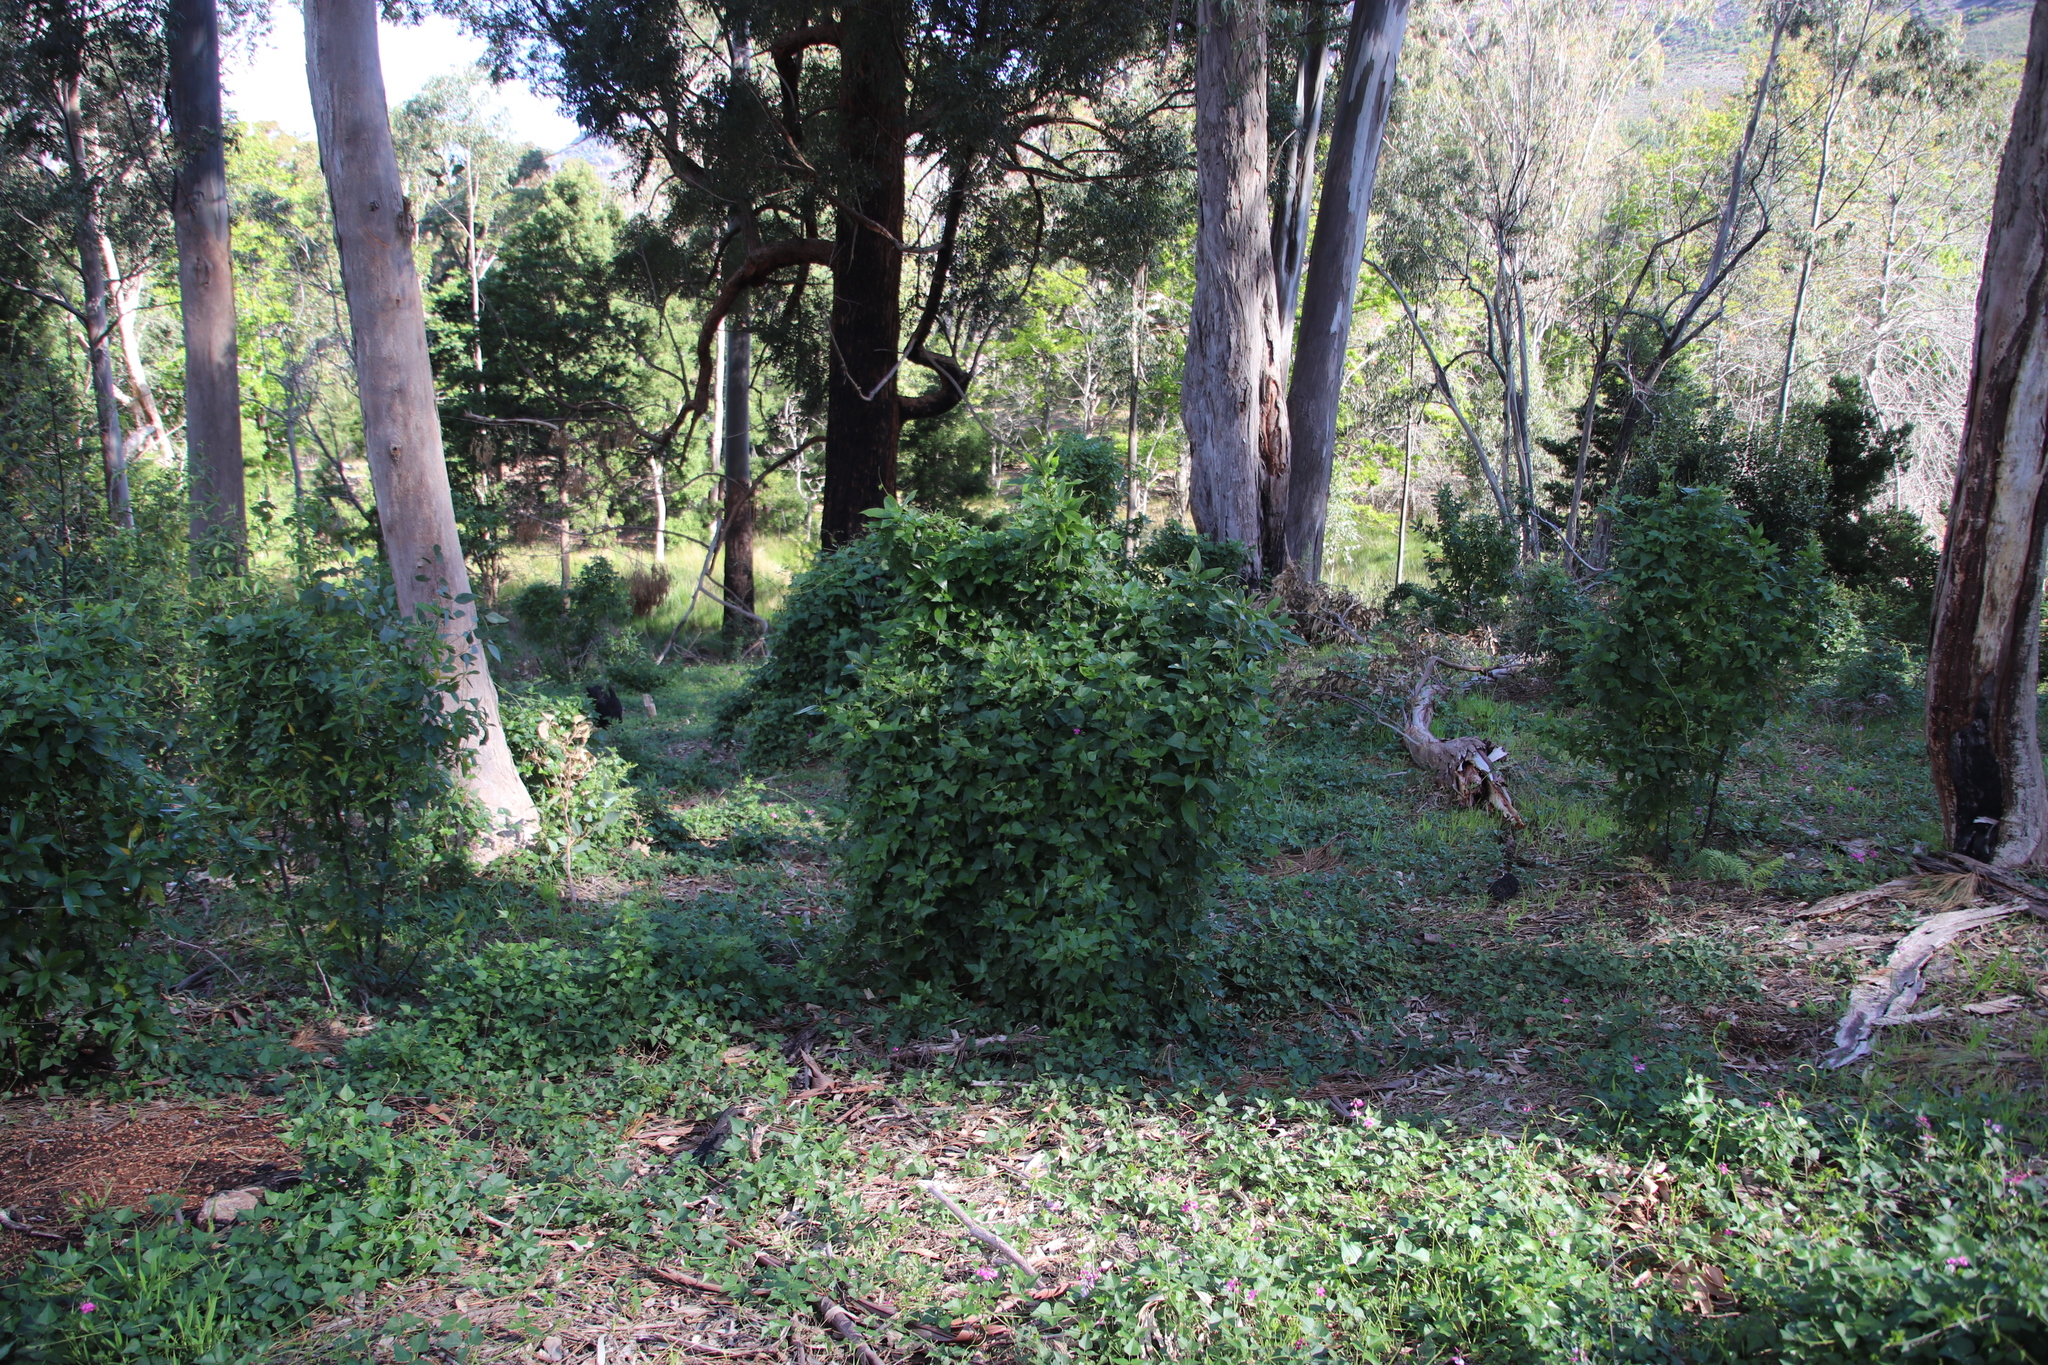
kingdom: Plantae
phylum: Tracheophyta
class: Magnoliopsida
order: Fabales
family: Fabaceae
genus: Dipogon
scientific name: Dipogon lignosus
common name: Okie bean
